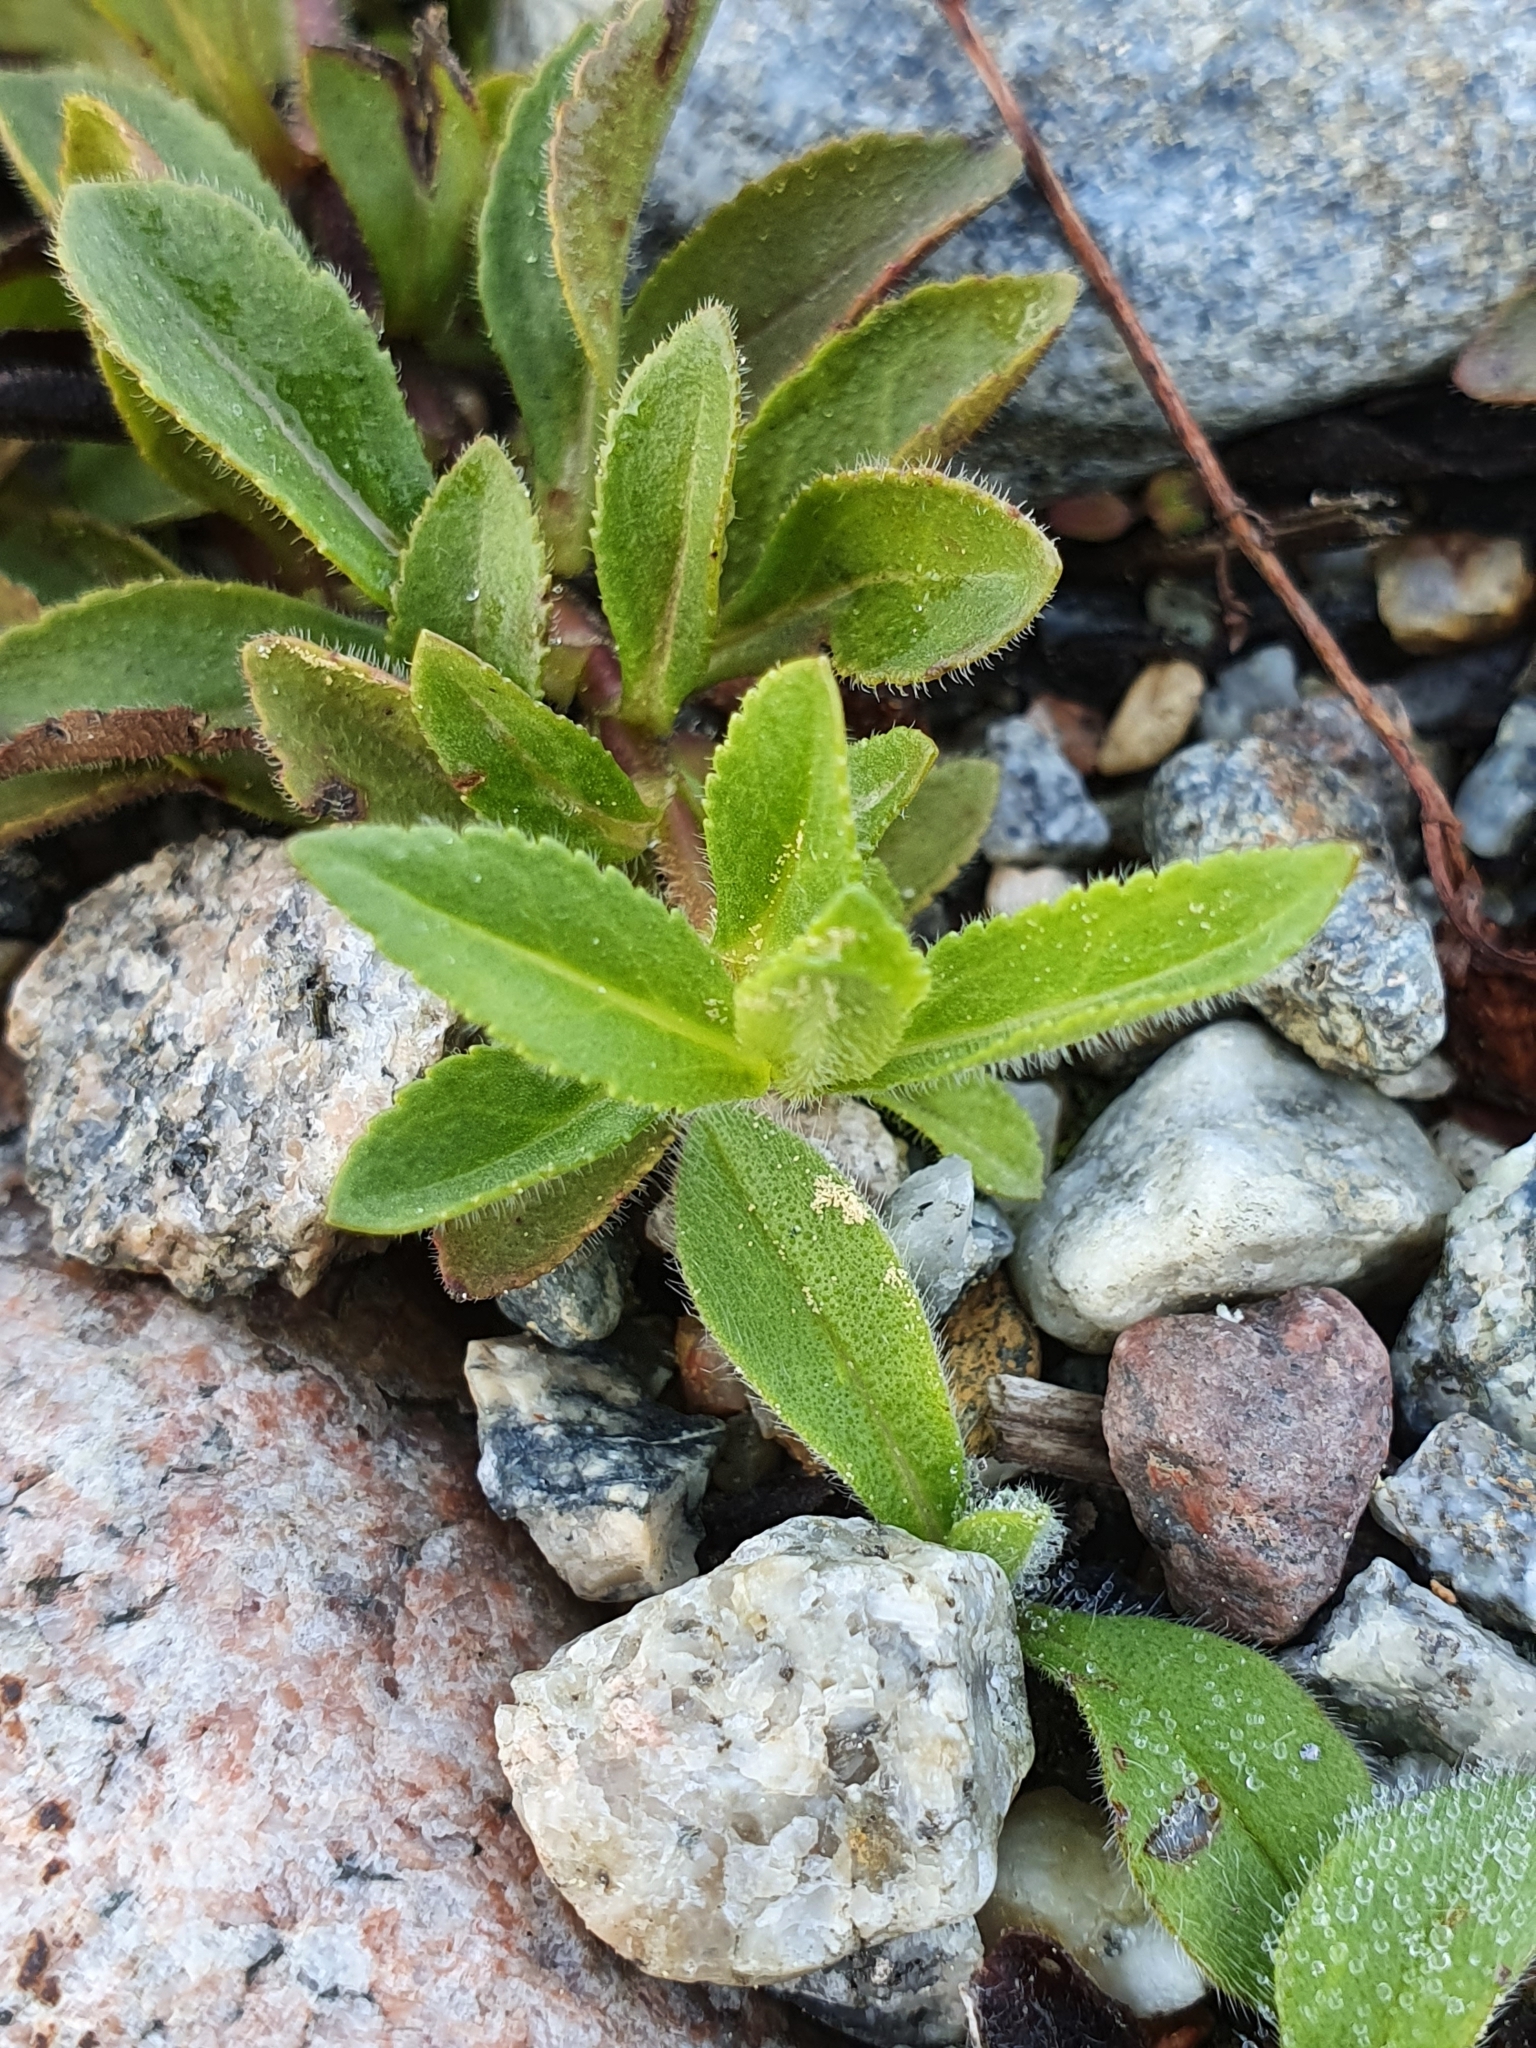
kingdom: Plantae
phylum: Tracheophyta
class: Magnoliopsida
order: Lamiales
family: Plantaginaceae
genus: Veronica
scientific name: Veronica officinalis
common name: Common speedwell
